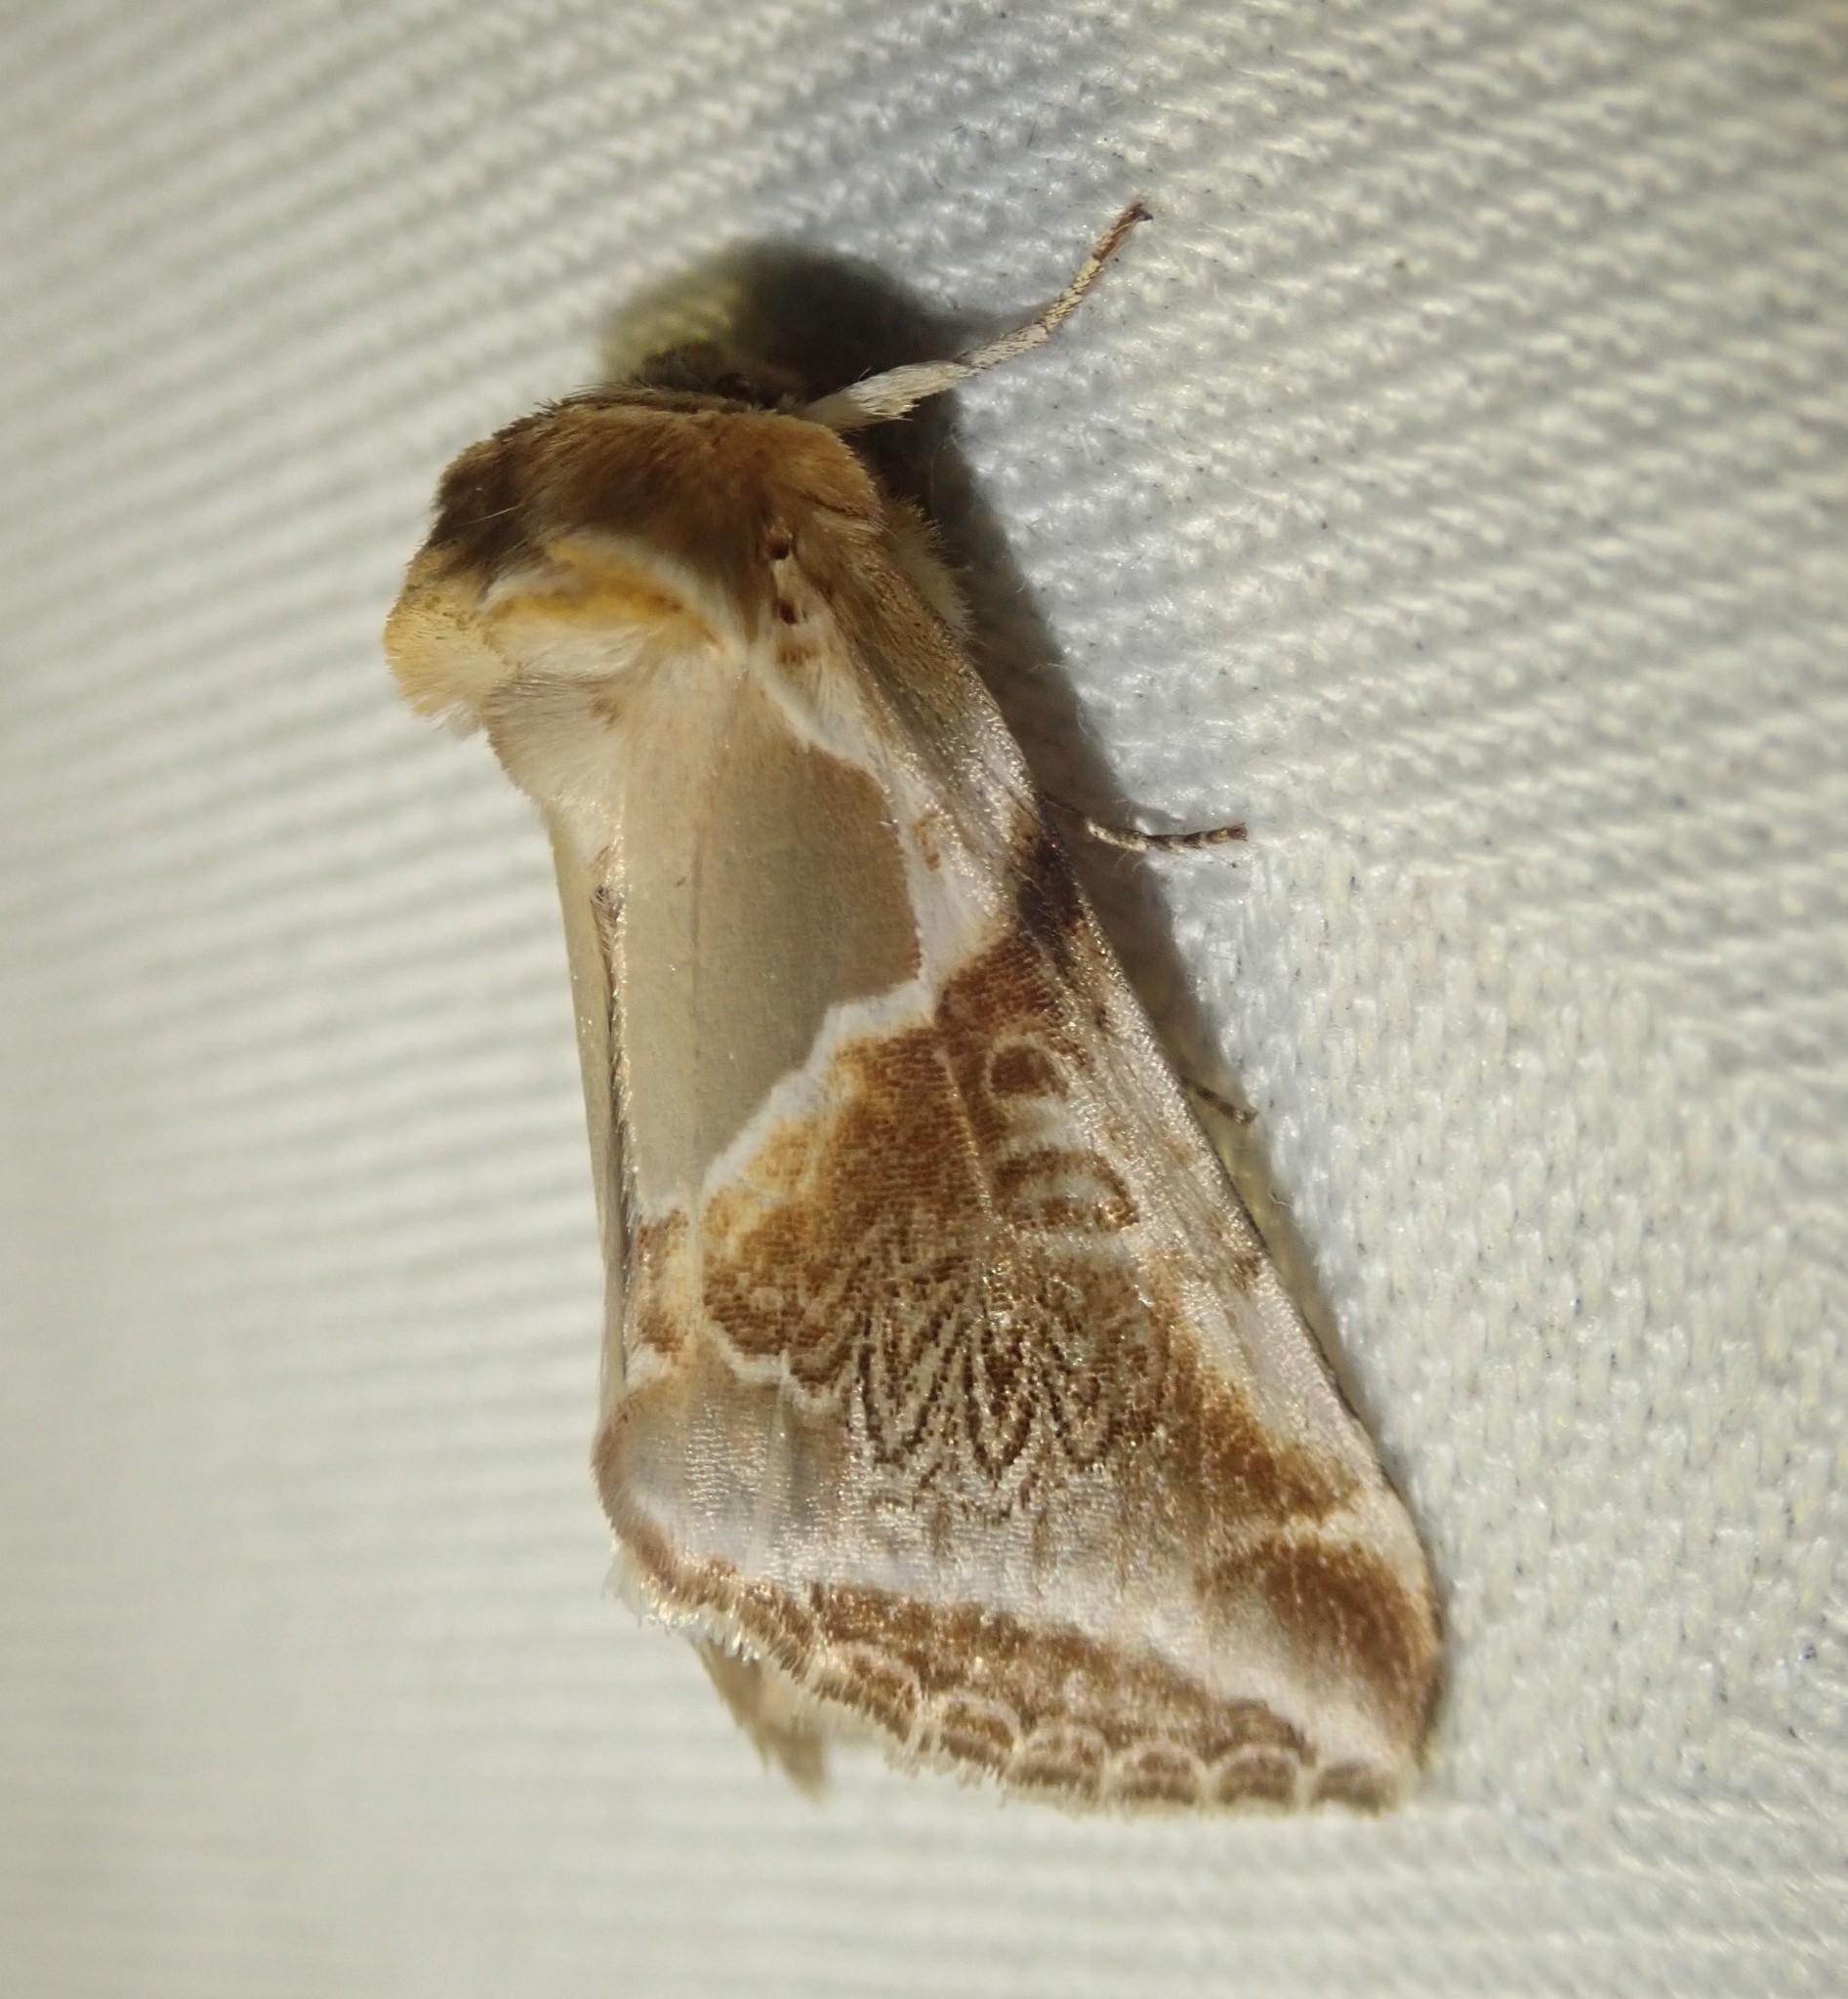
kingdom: Animalia
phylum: Arthropoda
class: Insecta
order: Lepidoptera
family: Drepanidae
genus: Habrosyne
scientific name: Habrosyne pyritoides
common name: Buff arches
